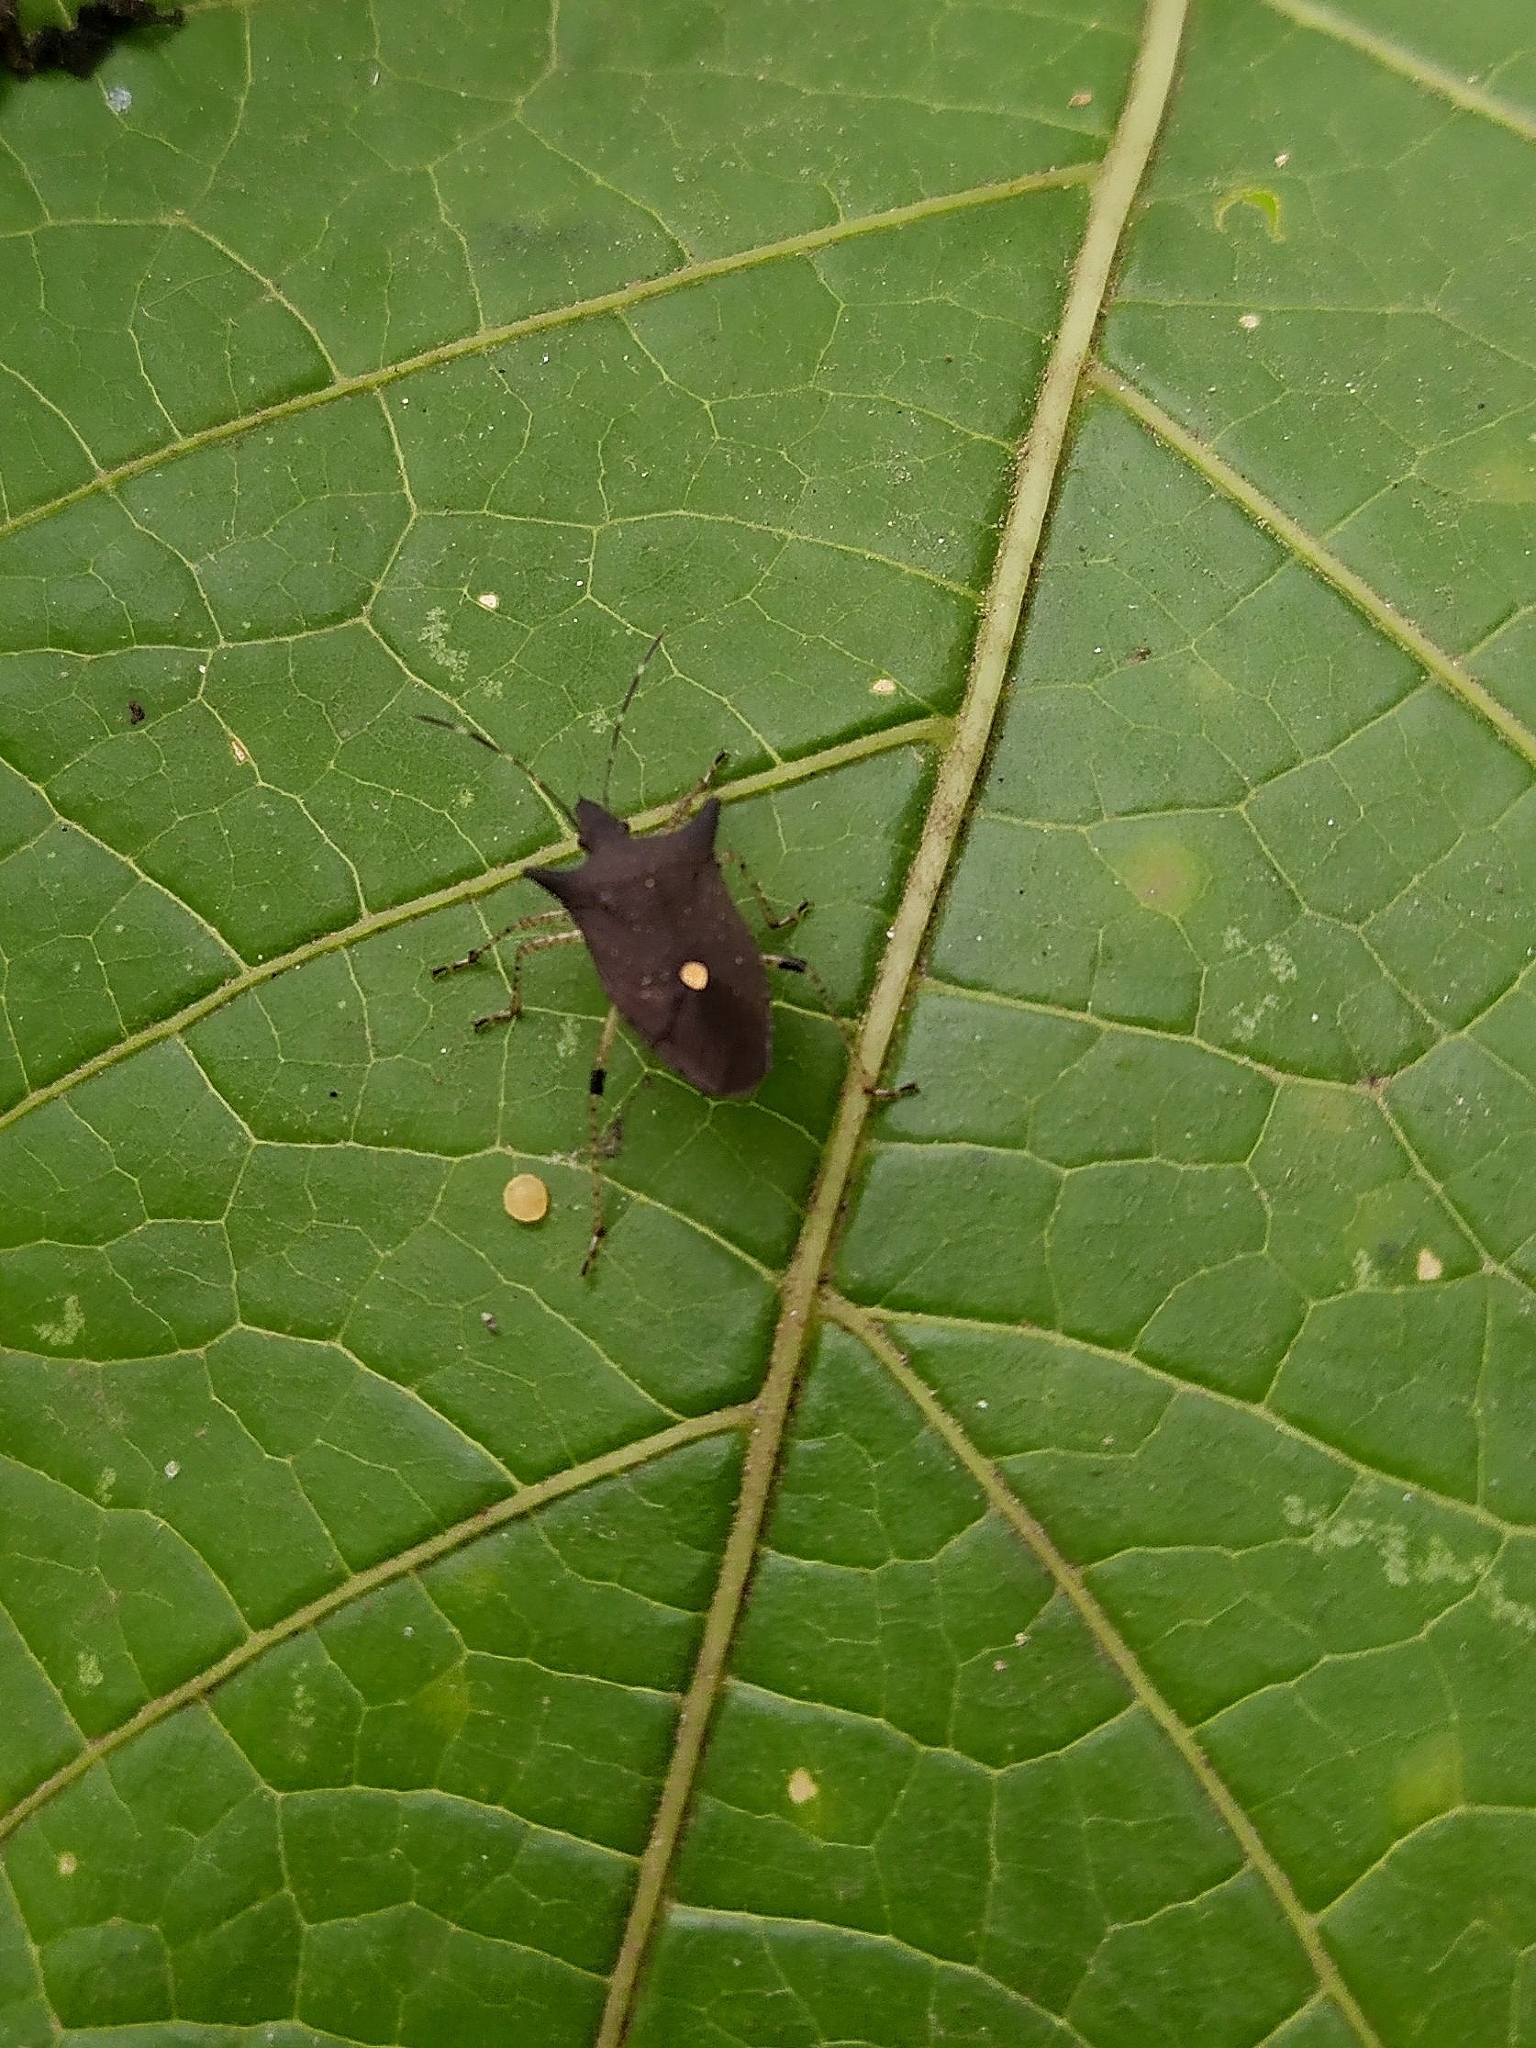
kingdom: Animalia
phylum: Arthropoda
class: Insecta
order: Hemiptera
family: Pentatomidae
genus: Proxys
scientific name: Proxys
